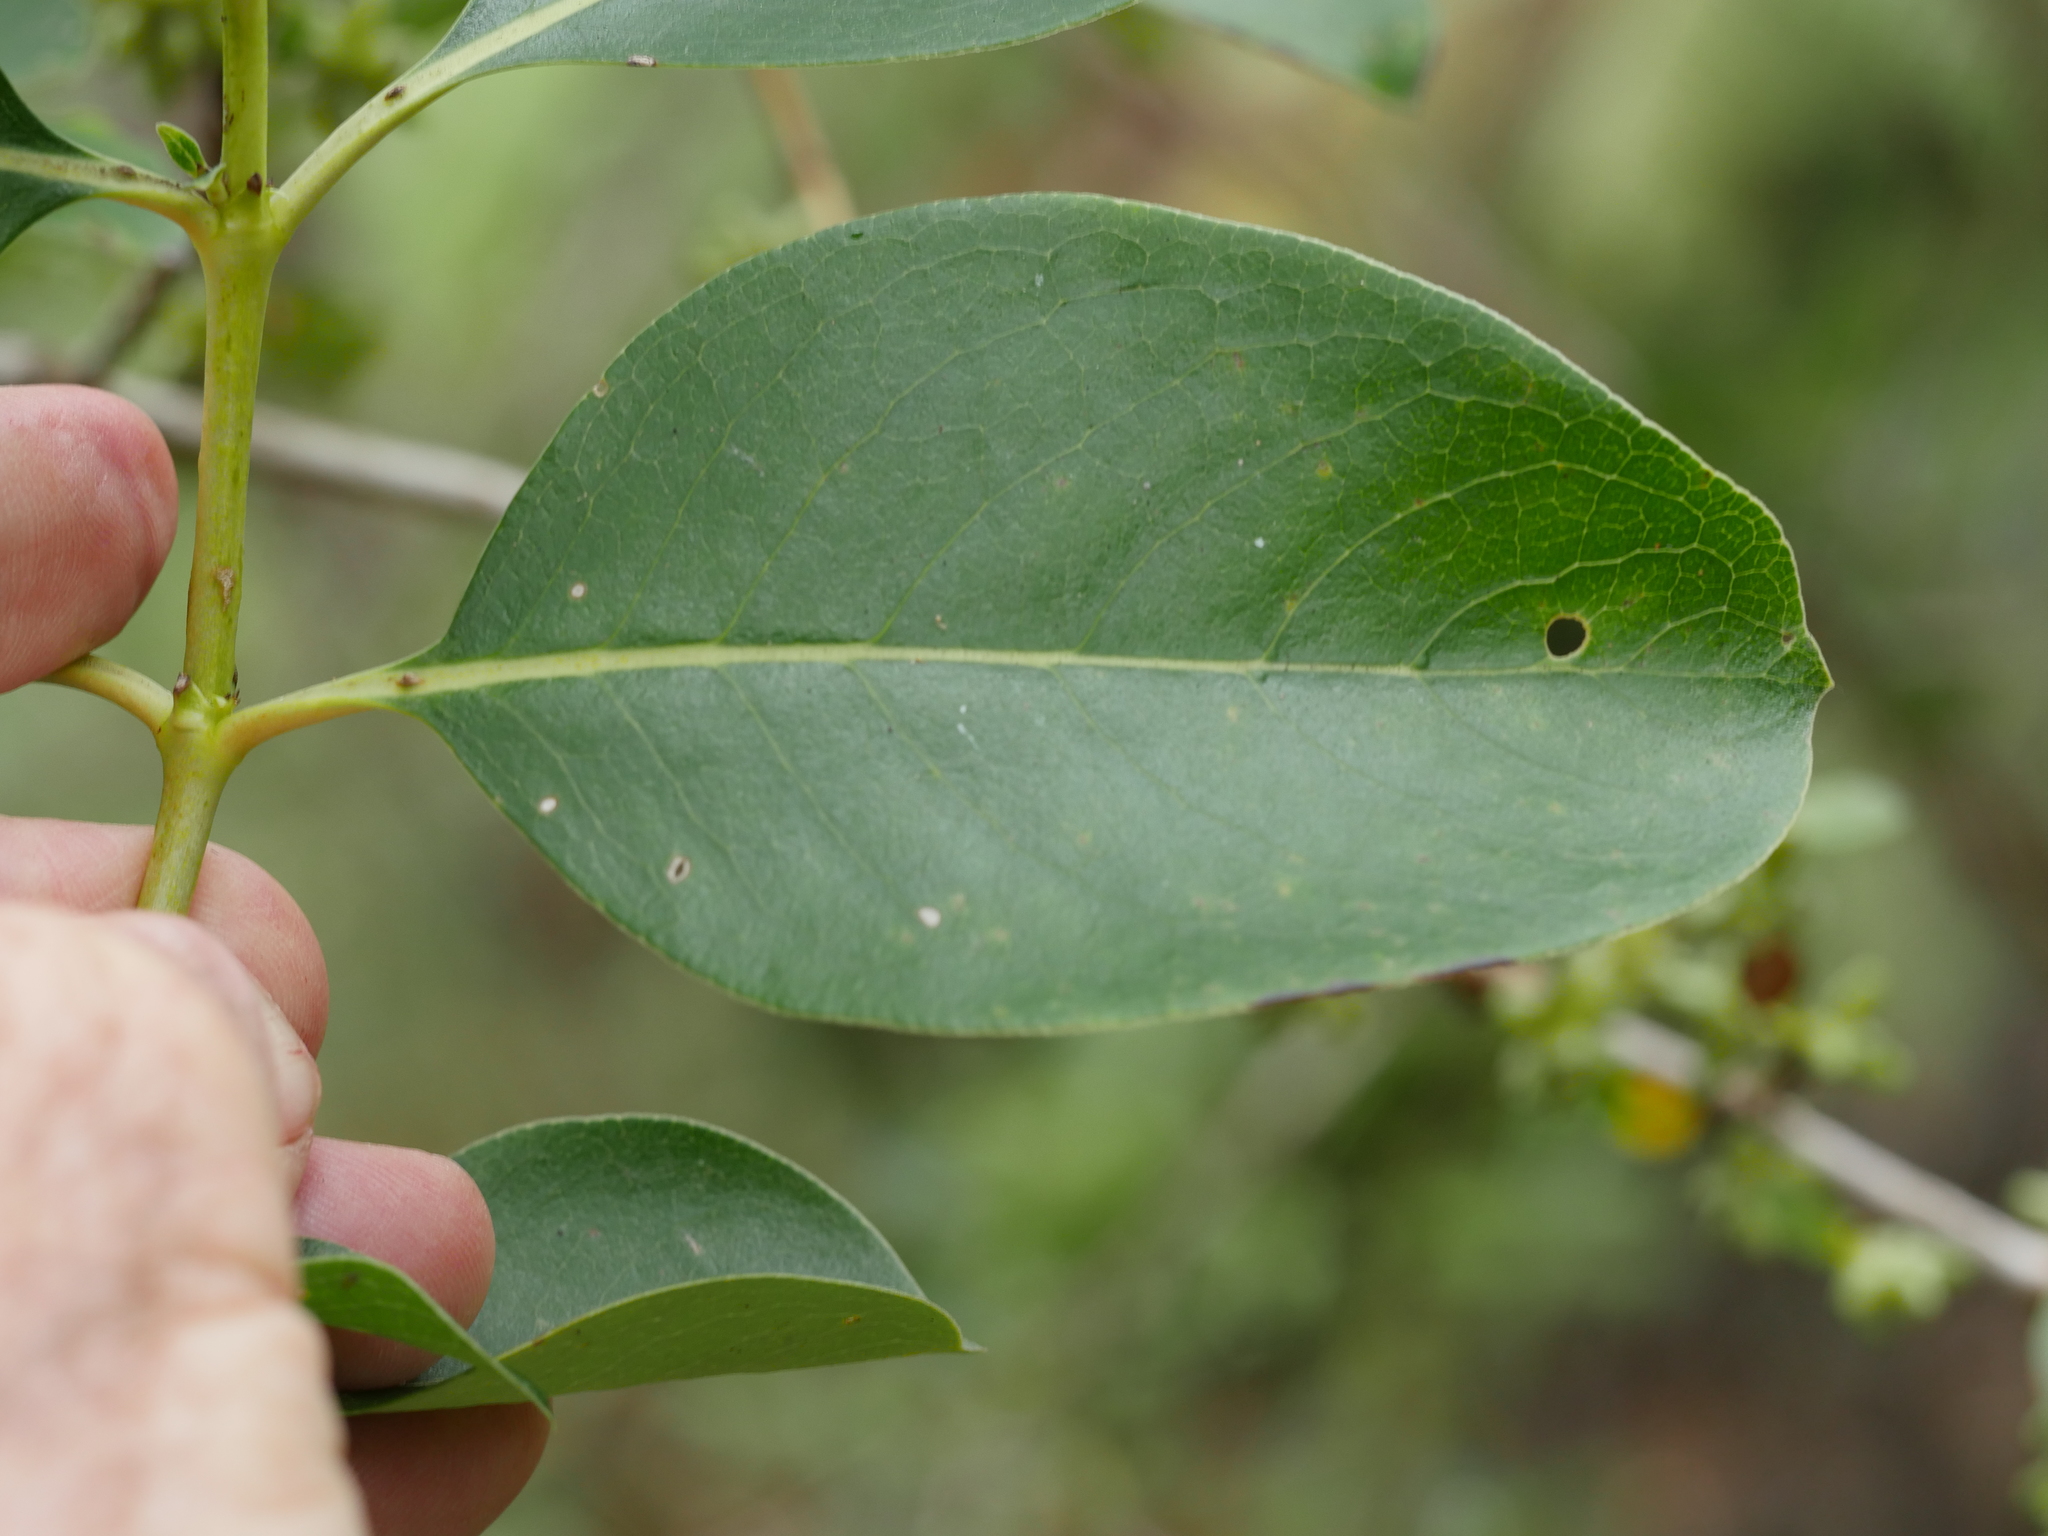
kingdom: Plantae
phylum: Tracheophyta
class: Magnoliopsida
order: Gentianales
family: Rubiaceae
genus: Coprosma
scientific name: Coprosma robusta
